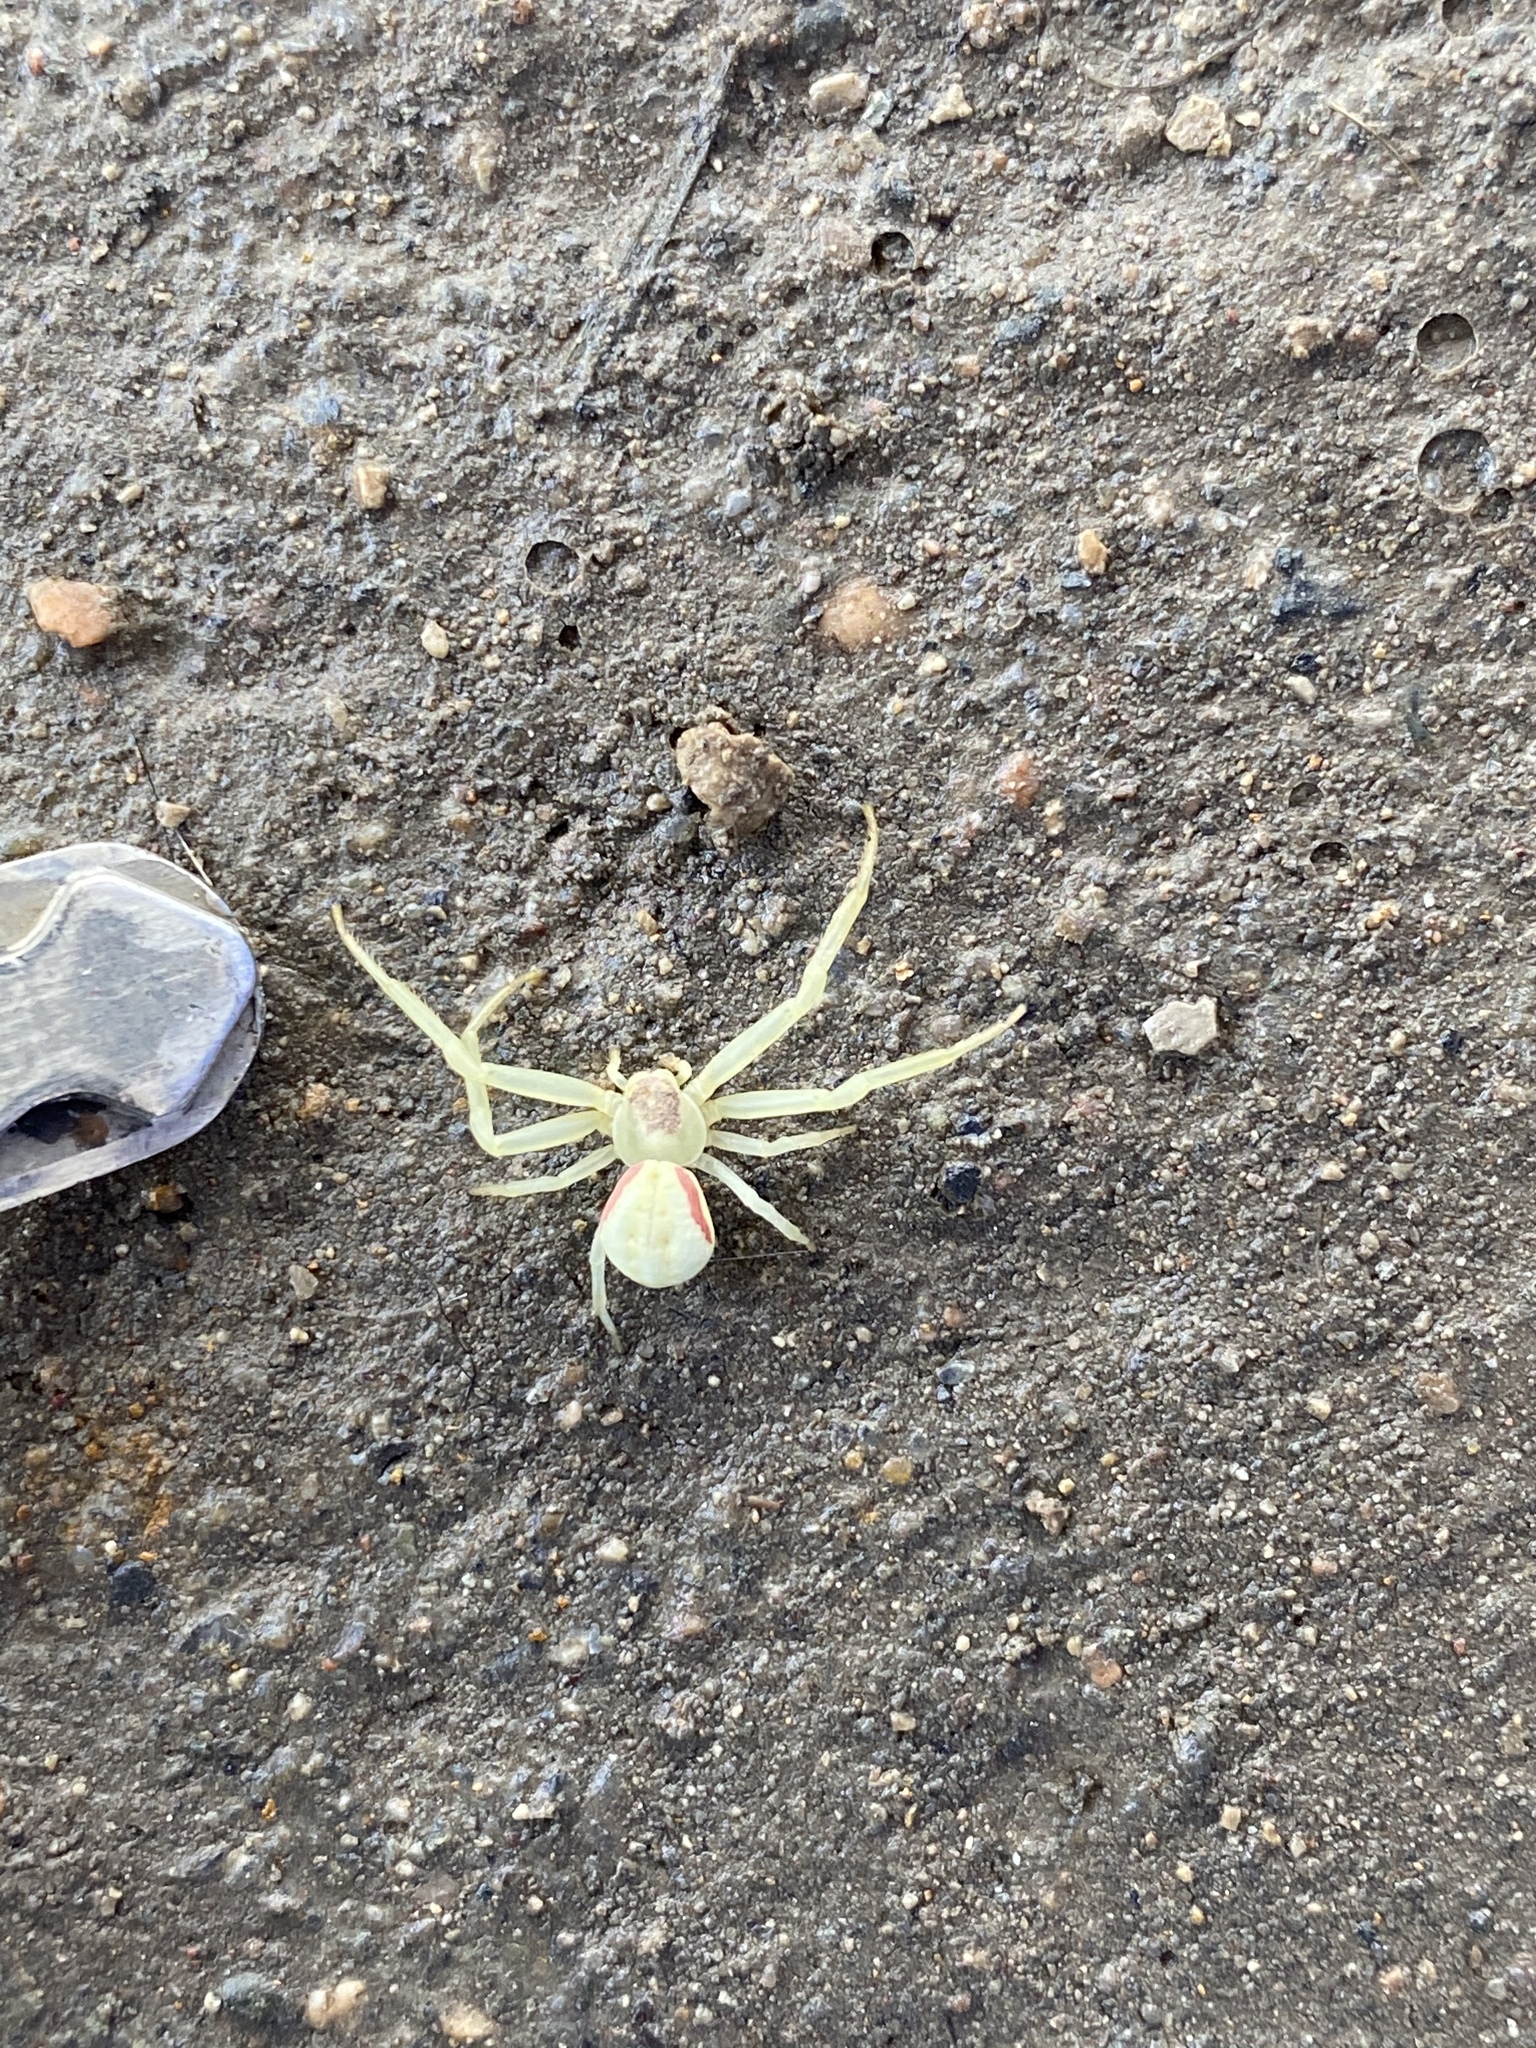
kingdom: Animalia
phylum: Arthropoda
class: Arachnida
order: Araneae
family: Thomisidae
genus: Misumena
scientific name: Misumena vatia
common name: Goldenrod crab spider
